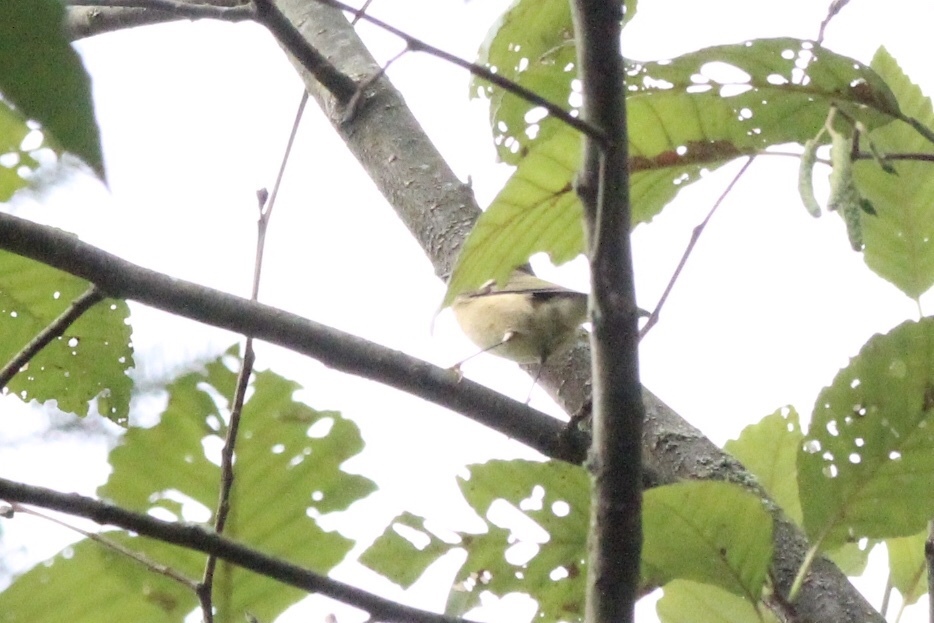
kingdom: Animalia
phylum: Chordata
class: Aves
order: Passeriformes
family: Regulidae
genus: Regulus
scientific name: Regulus calendula
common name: Ruby-crowned kinglet
